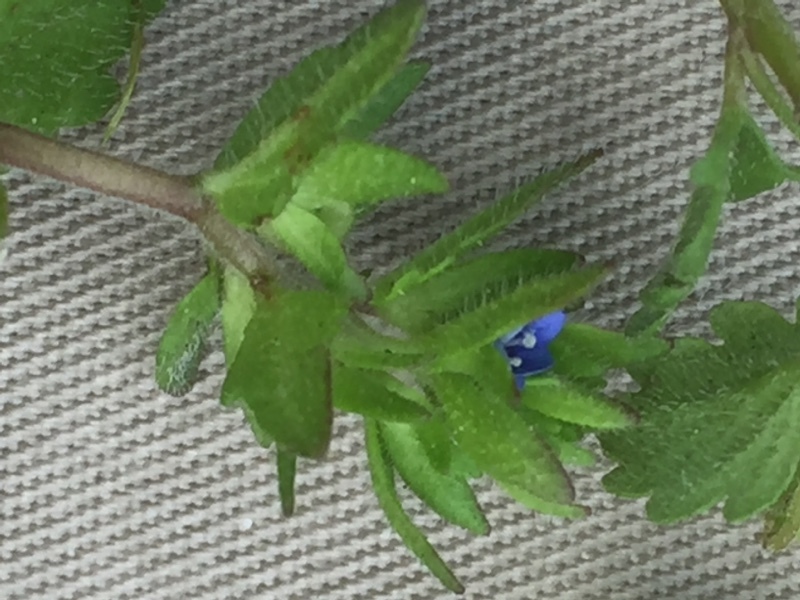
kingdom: Plantae
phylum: Tracheophyta
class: Magnoliopsida
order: Lamiales
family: Plantaginaceae
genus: Veronica
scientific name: Veronica arvensis
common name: Corn speedwell
